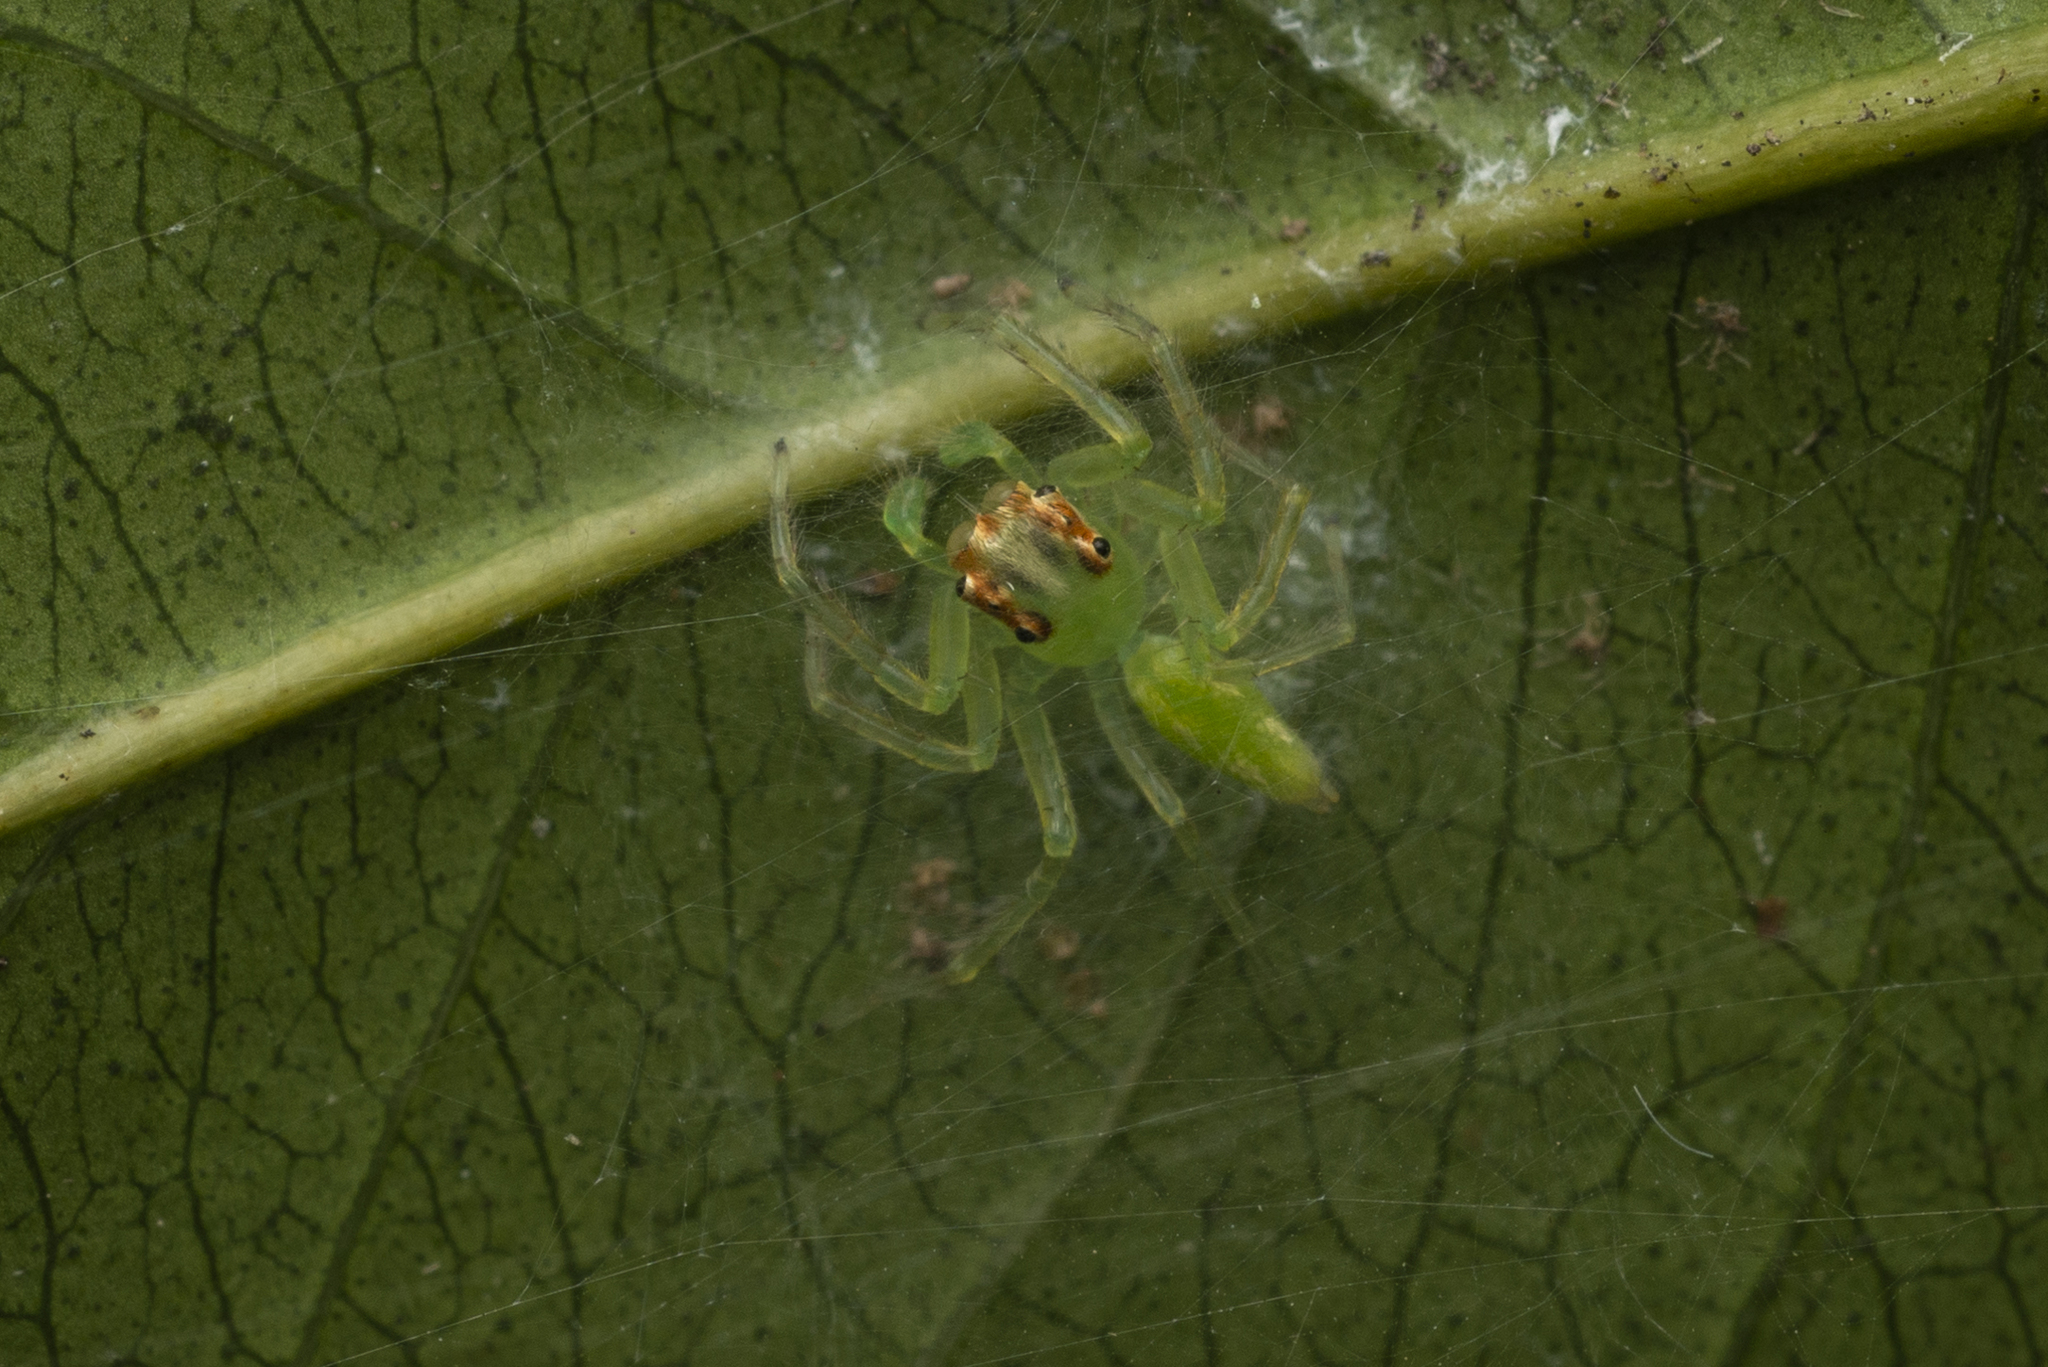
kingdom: Animalia
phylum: Arthropoda
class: Arachnida
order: Araneae
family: Salticidae
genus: Epeus
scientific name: Epeus glorius
